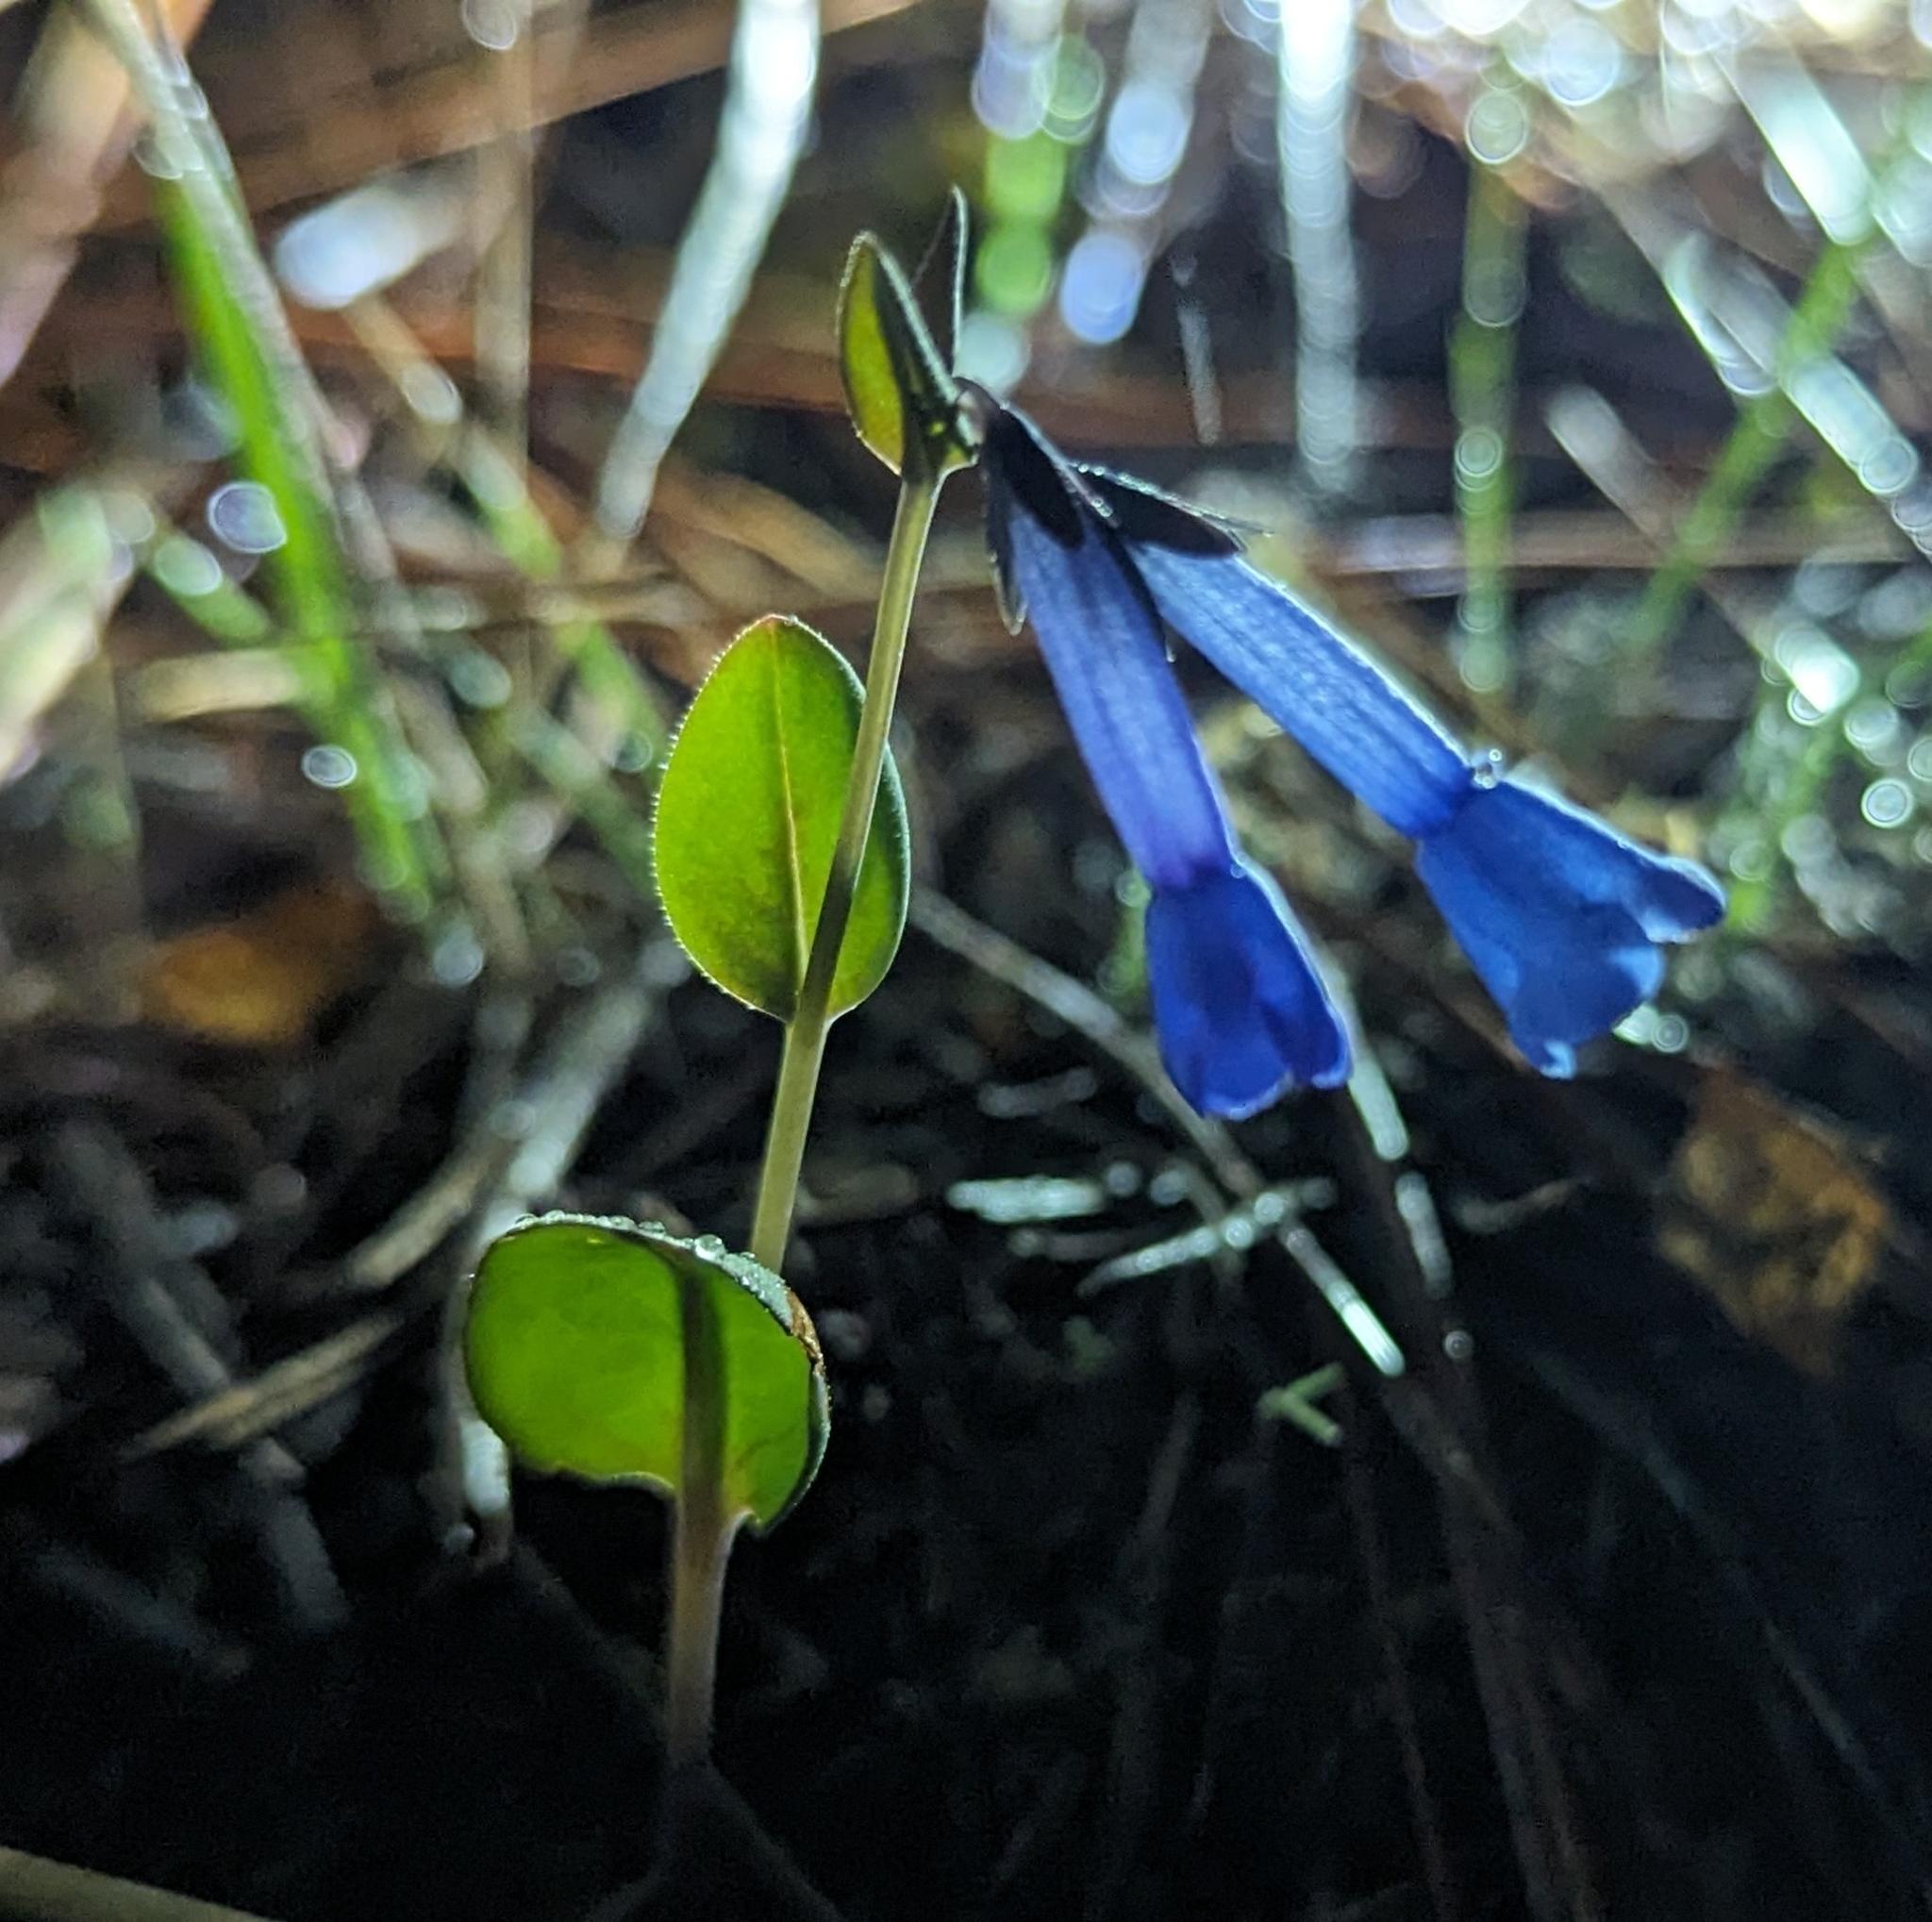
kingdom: Plantae
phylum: Tracheophyta
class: Magnoliopsida
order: Boraginales
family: Boraginaceae
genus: Mertensia
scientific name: Mertensia longiflora
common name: Large-flowered bluebells
